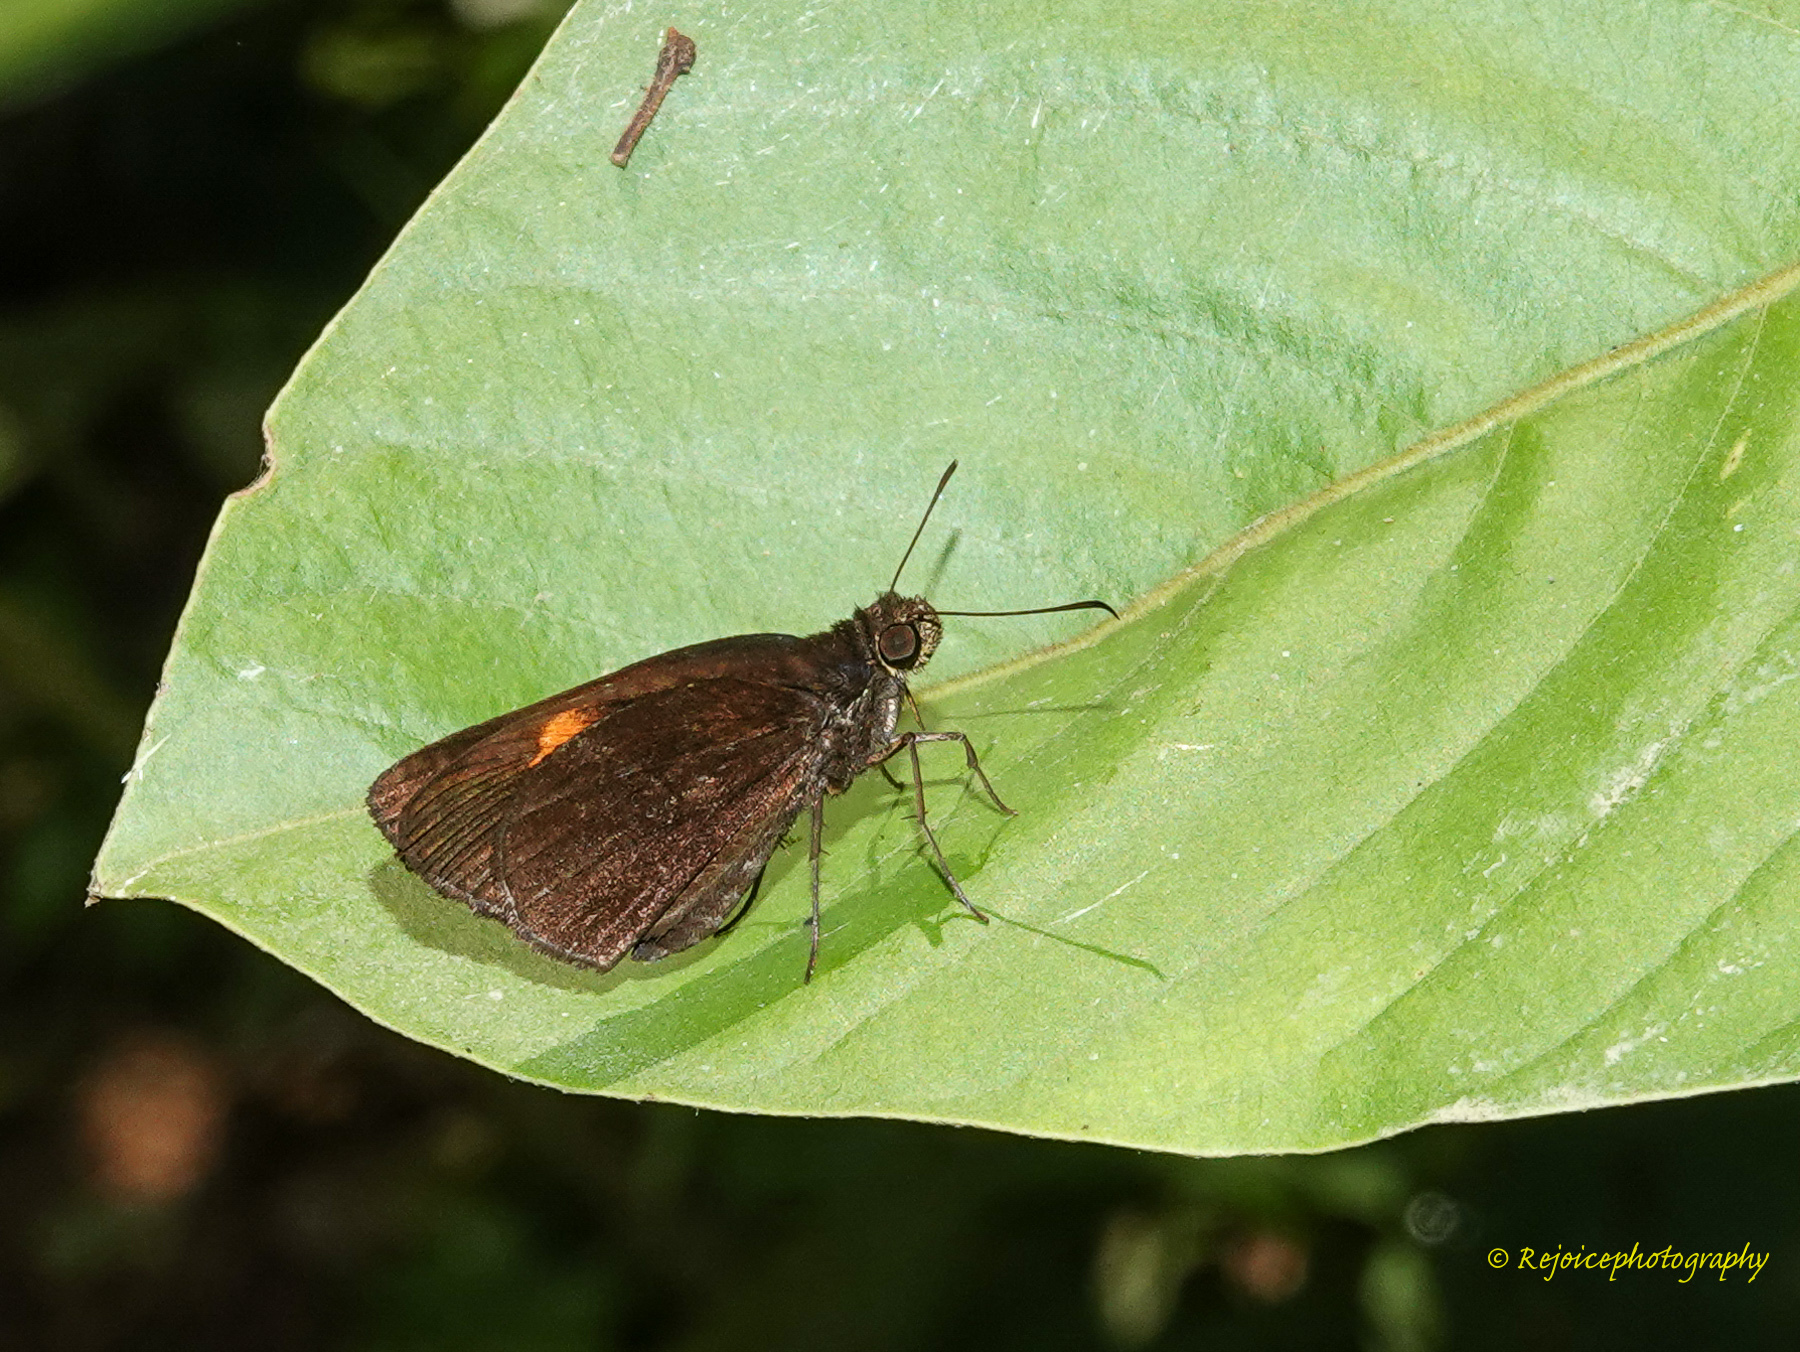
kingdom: Animalia
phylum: Arthropoda
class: Insecta
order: Lepidoptera
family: Hesperiidae
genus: Koruthaialos
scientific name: Koruthaialos sindu
